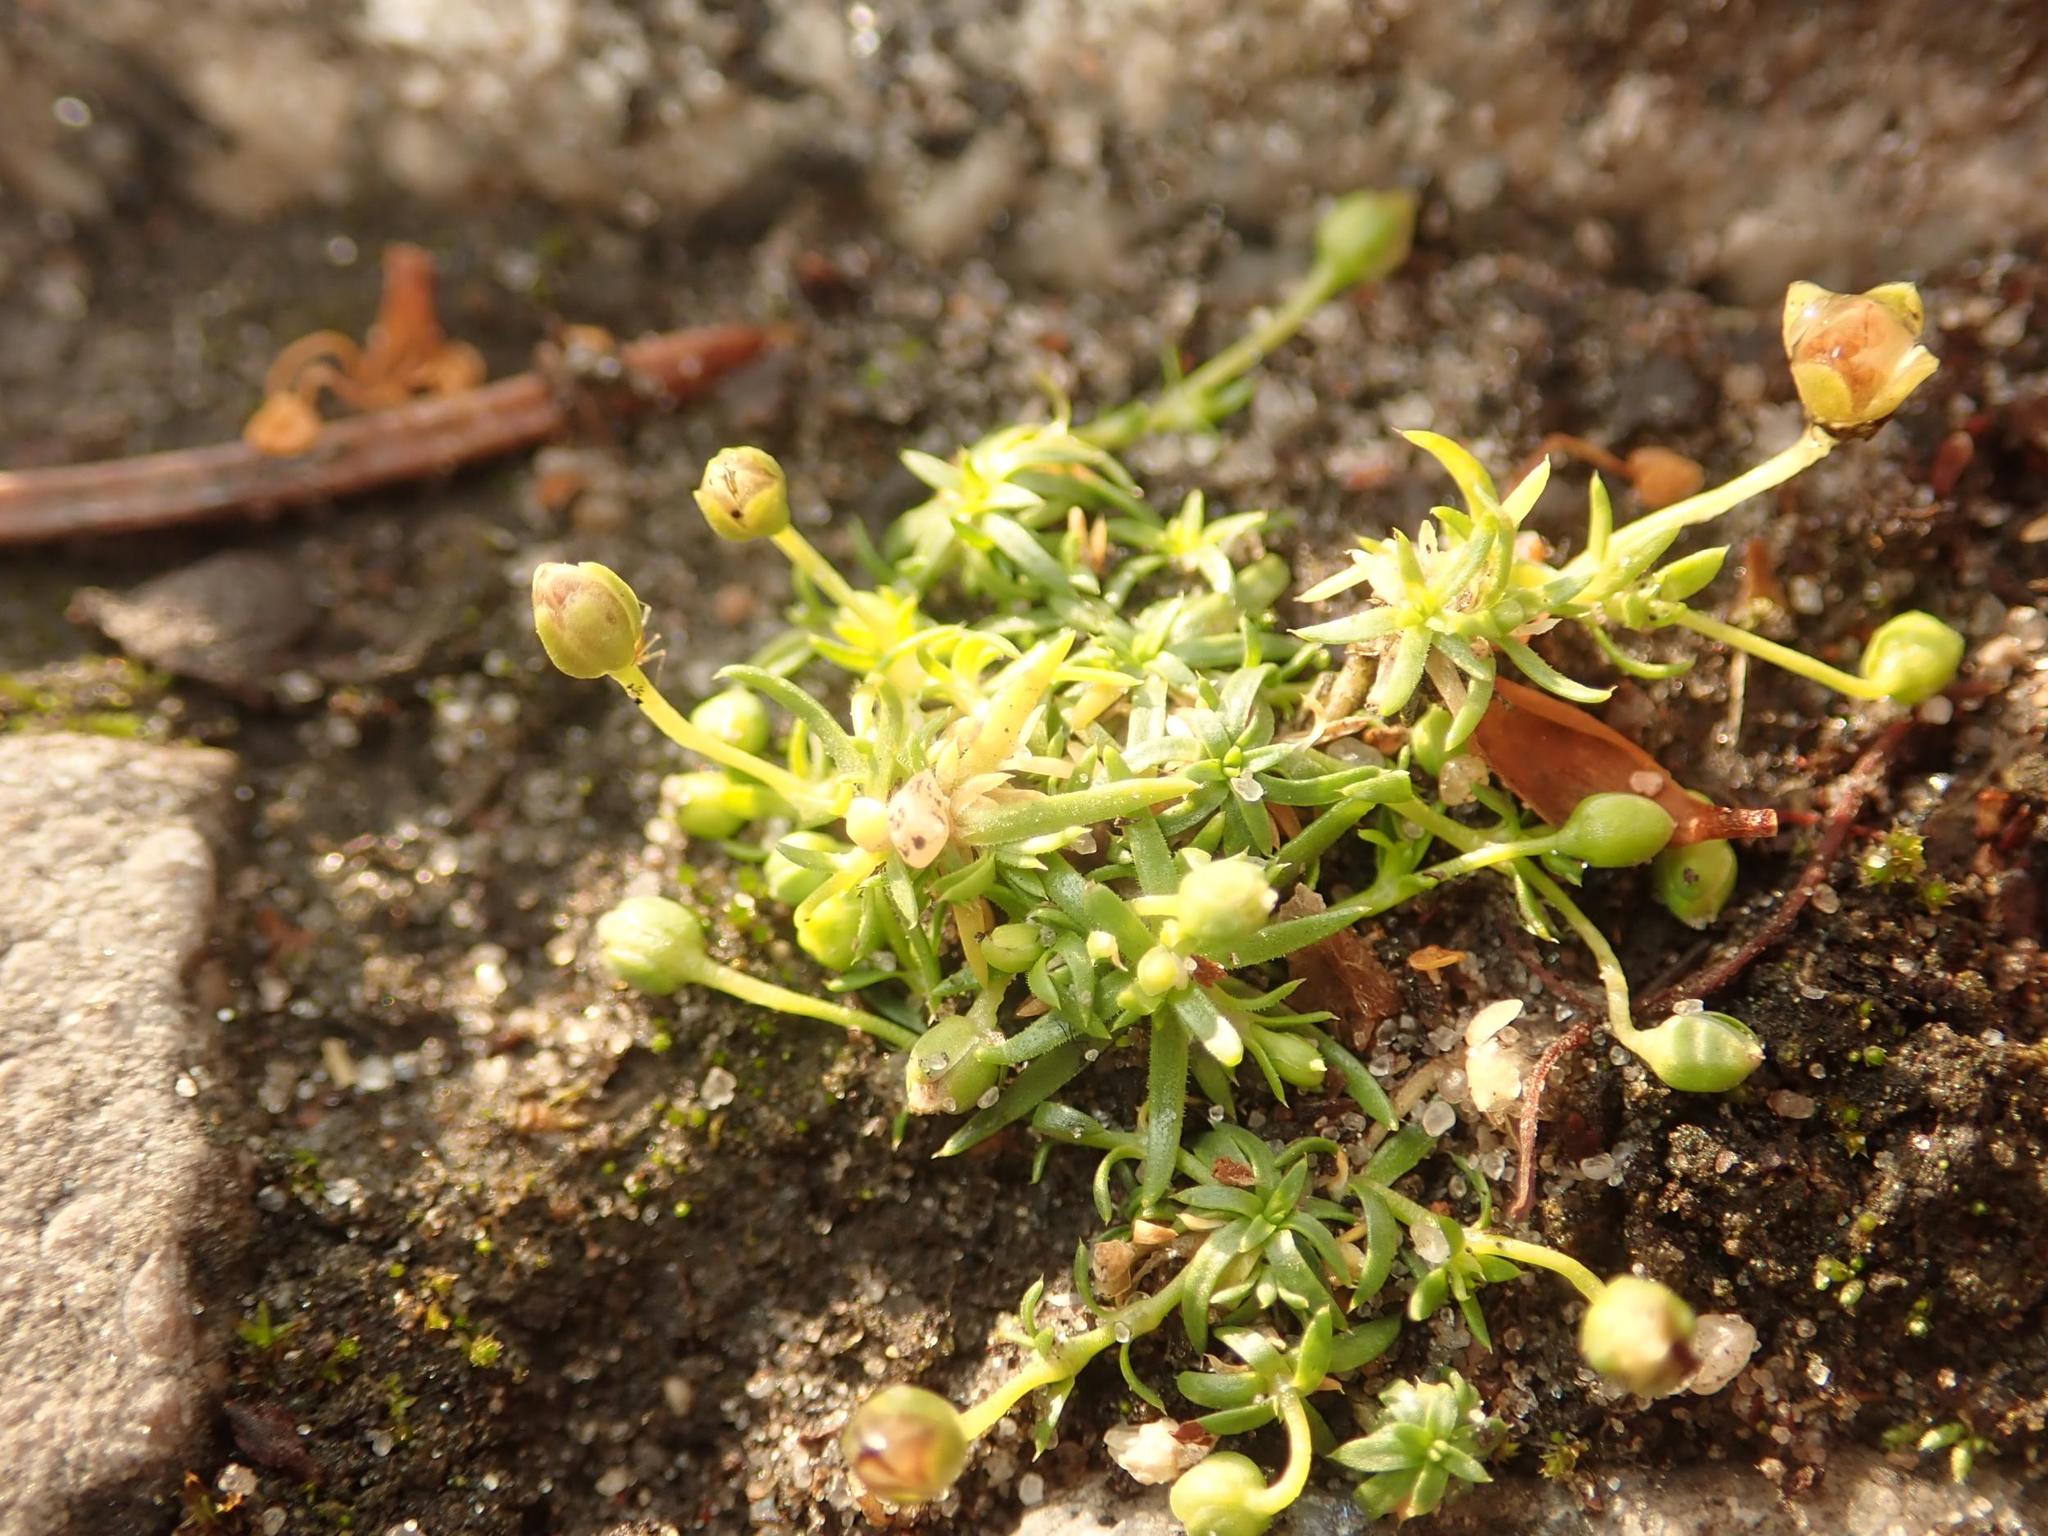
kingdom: Plantae
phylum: Tracheophyta
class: Magnoliopsida
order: Caryophyllales
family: Caryophyllaceae
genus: Sagina
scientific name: Sagina procumbens
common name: Procumbent pearlwort
